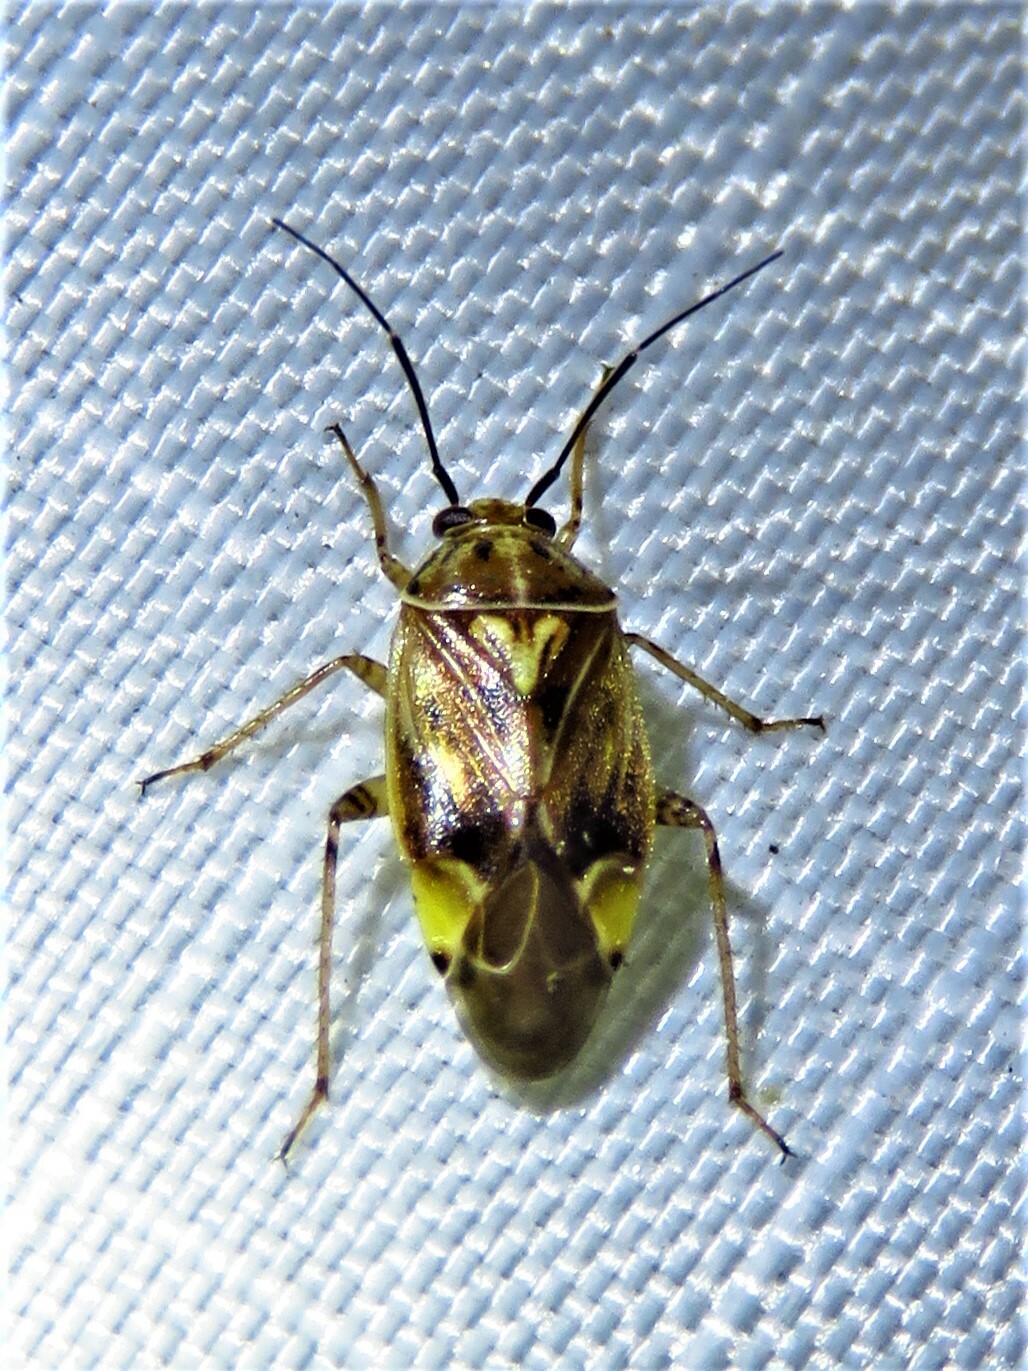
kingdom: Animalia
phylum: Arthropoda
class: Insecta
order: Hemiptera
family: Miridae
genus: Lygus
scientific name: Lygus lineolaris
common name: North american tarnished plant bug
